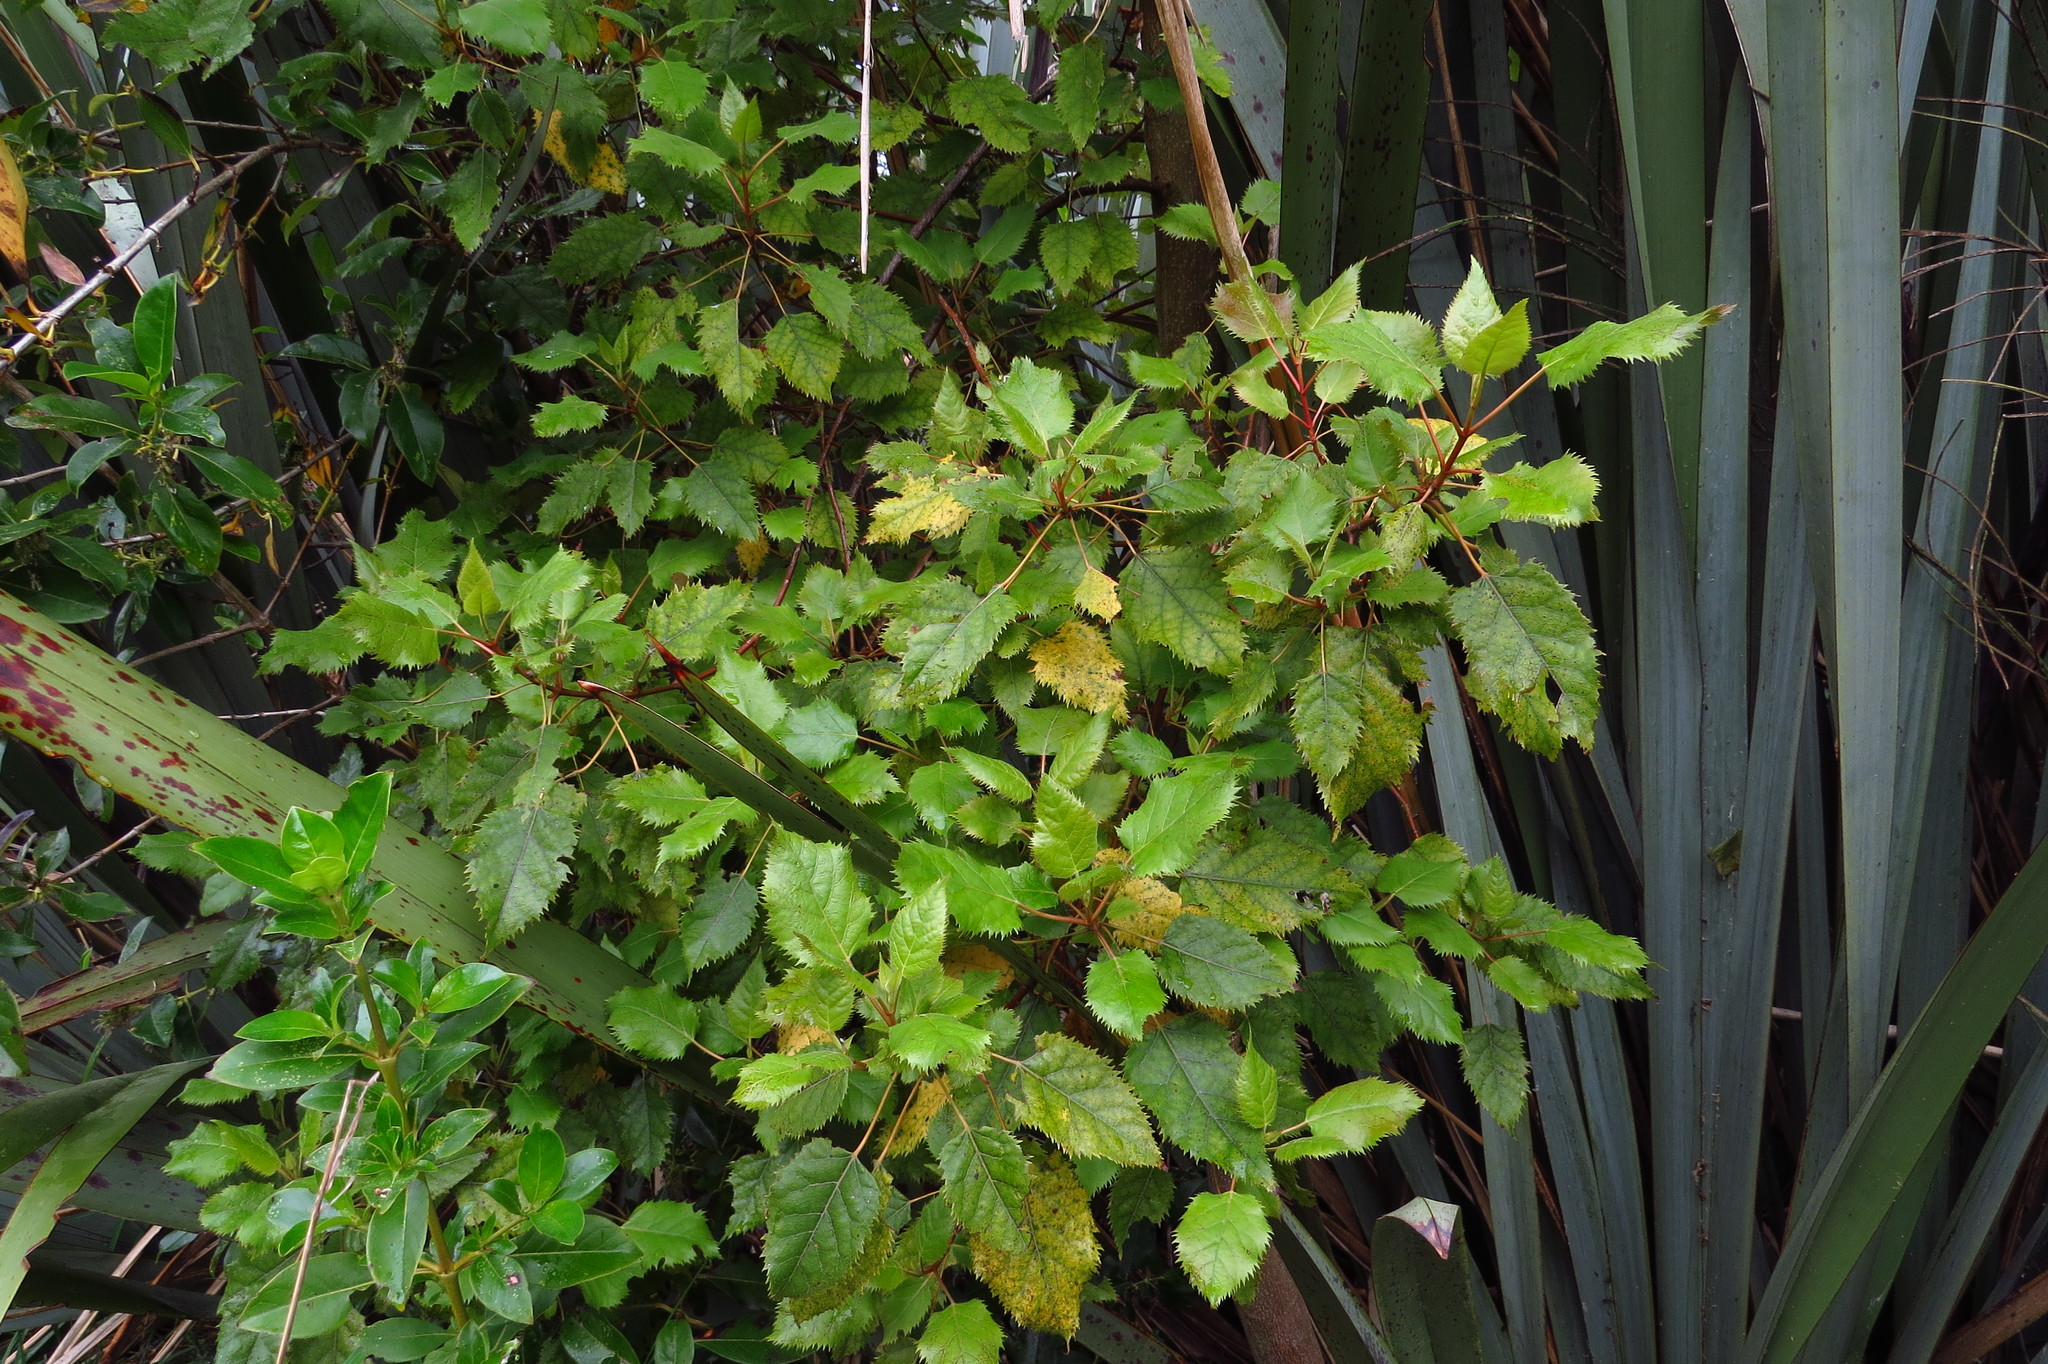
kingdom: Plantae
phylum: Tracheophyta
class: Magnoliopsida
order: Oxalidales
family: Elaeocarpaceae
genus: Aristotelia
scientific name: Aristotelia serrata
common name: New zealand wineberry
